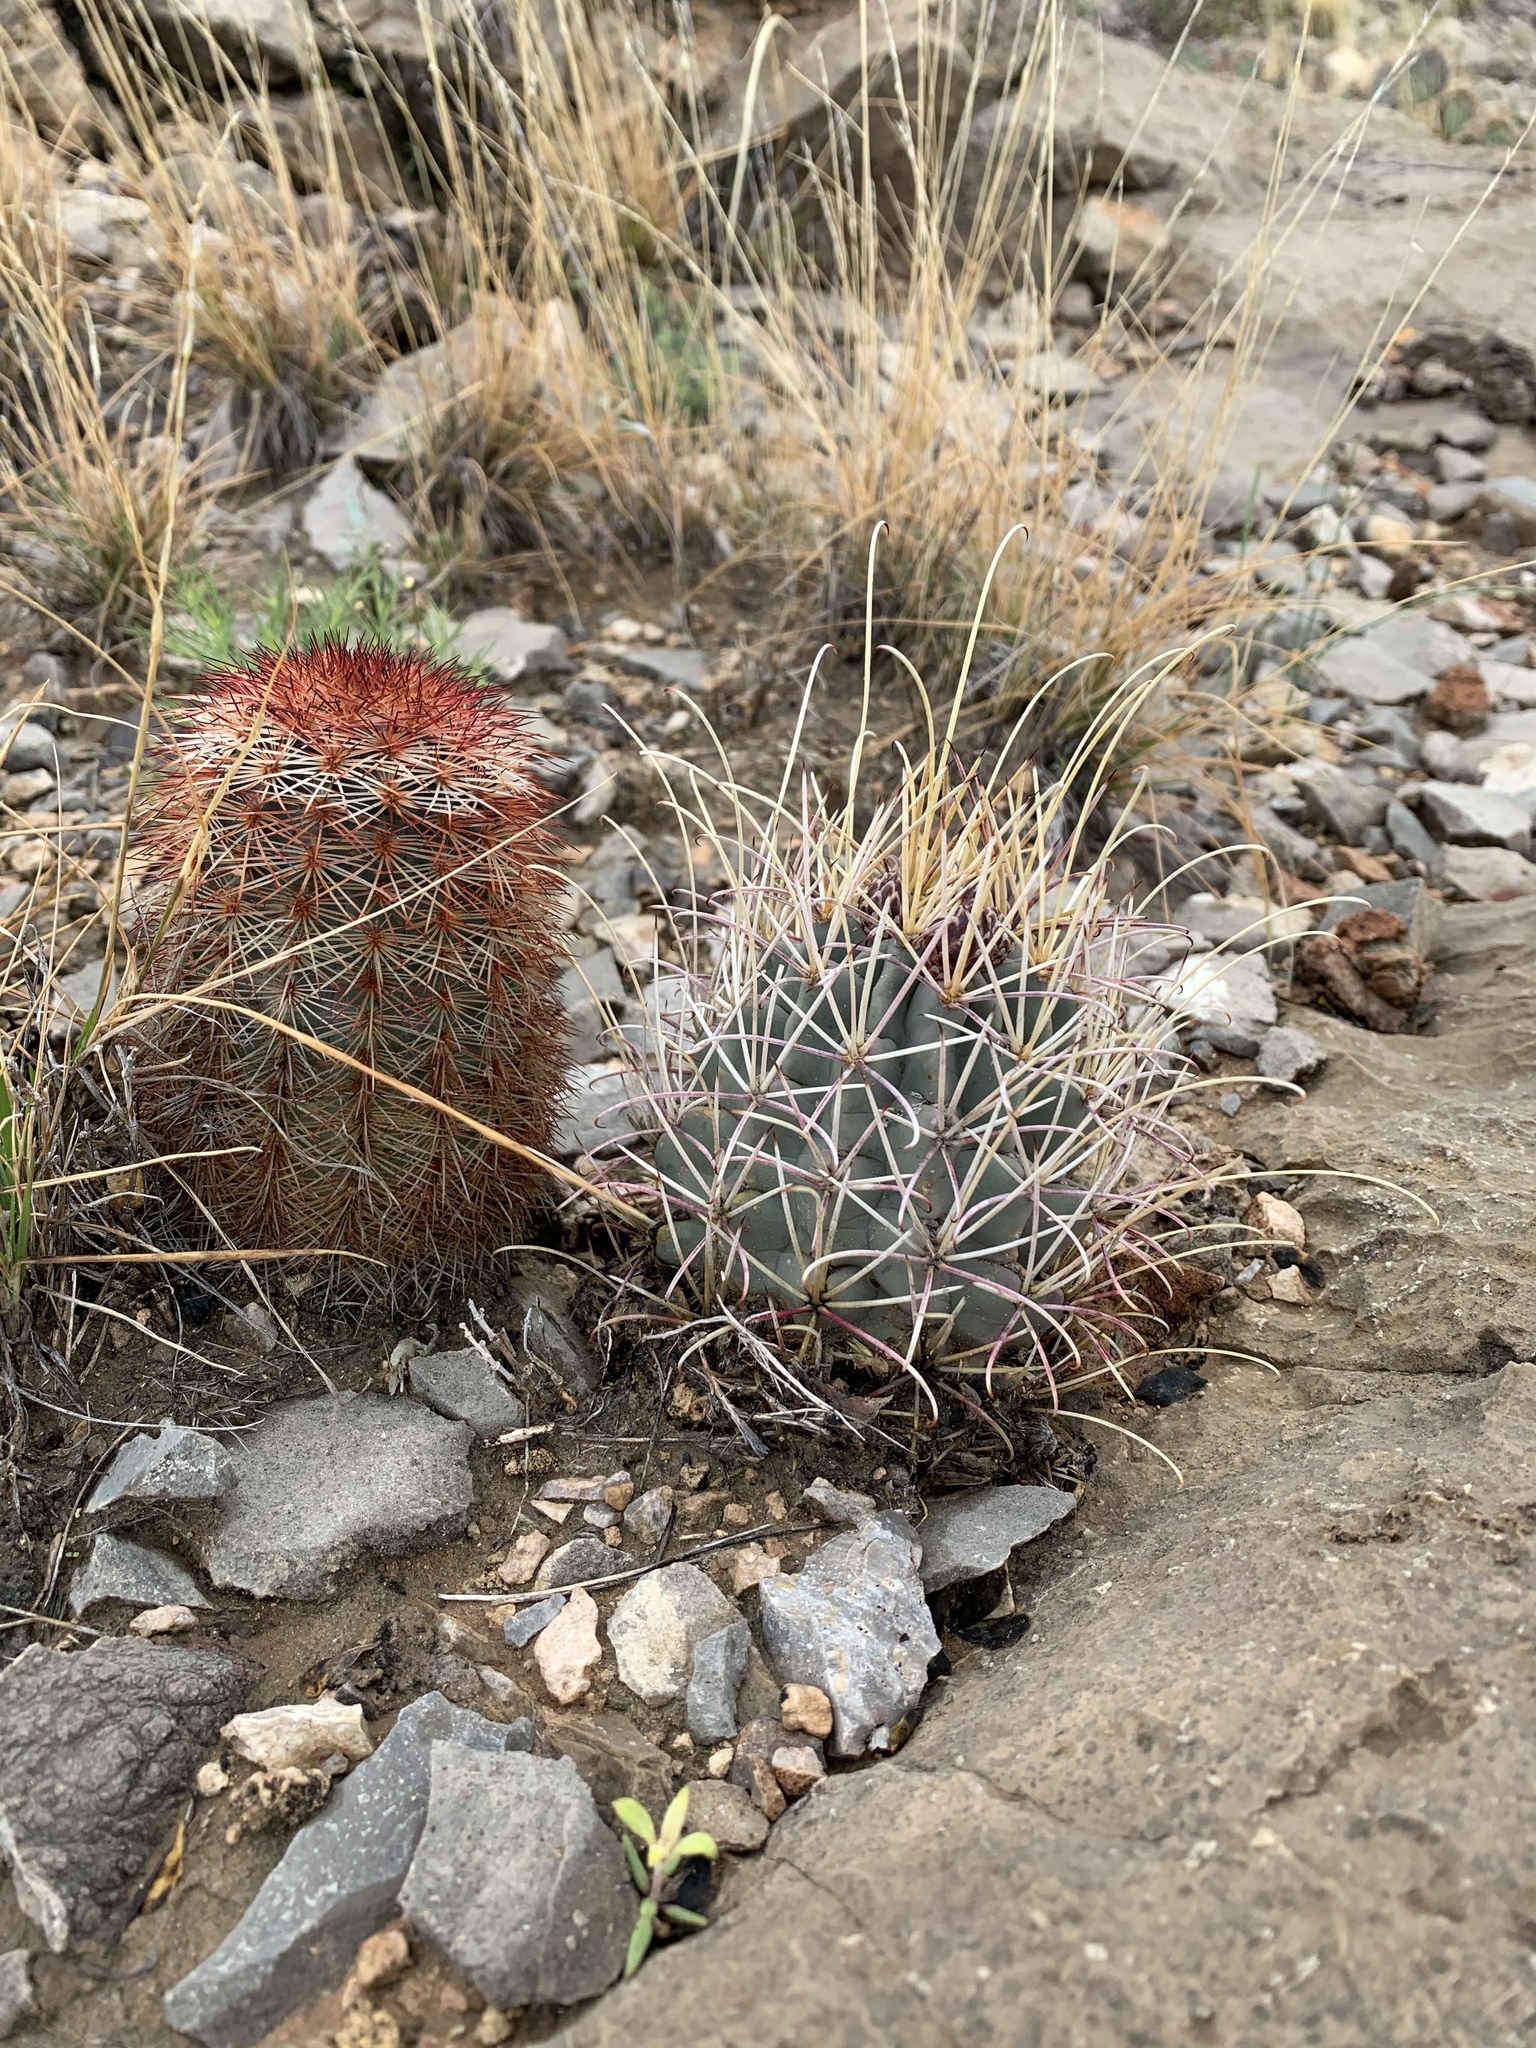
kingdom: Plantae
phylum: Tracheophyta
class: Magnoliopsida
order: Caryophyllales
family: Cactaceae
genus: Echinocereus
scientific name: Echinocereus dasyacanthus
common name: Spiny hedgehog cactus
